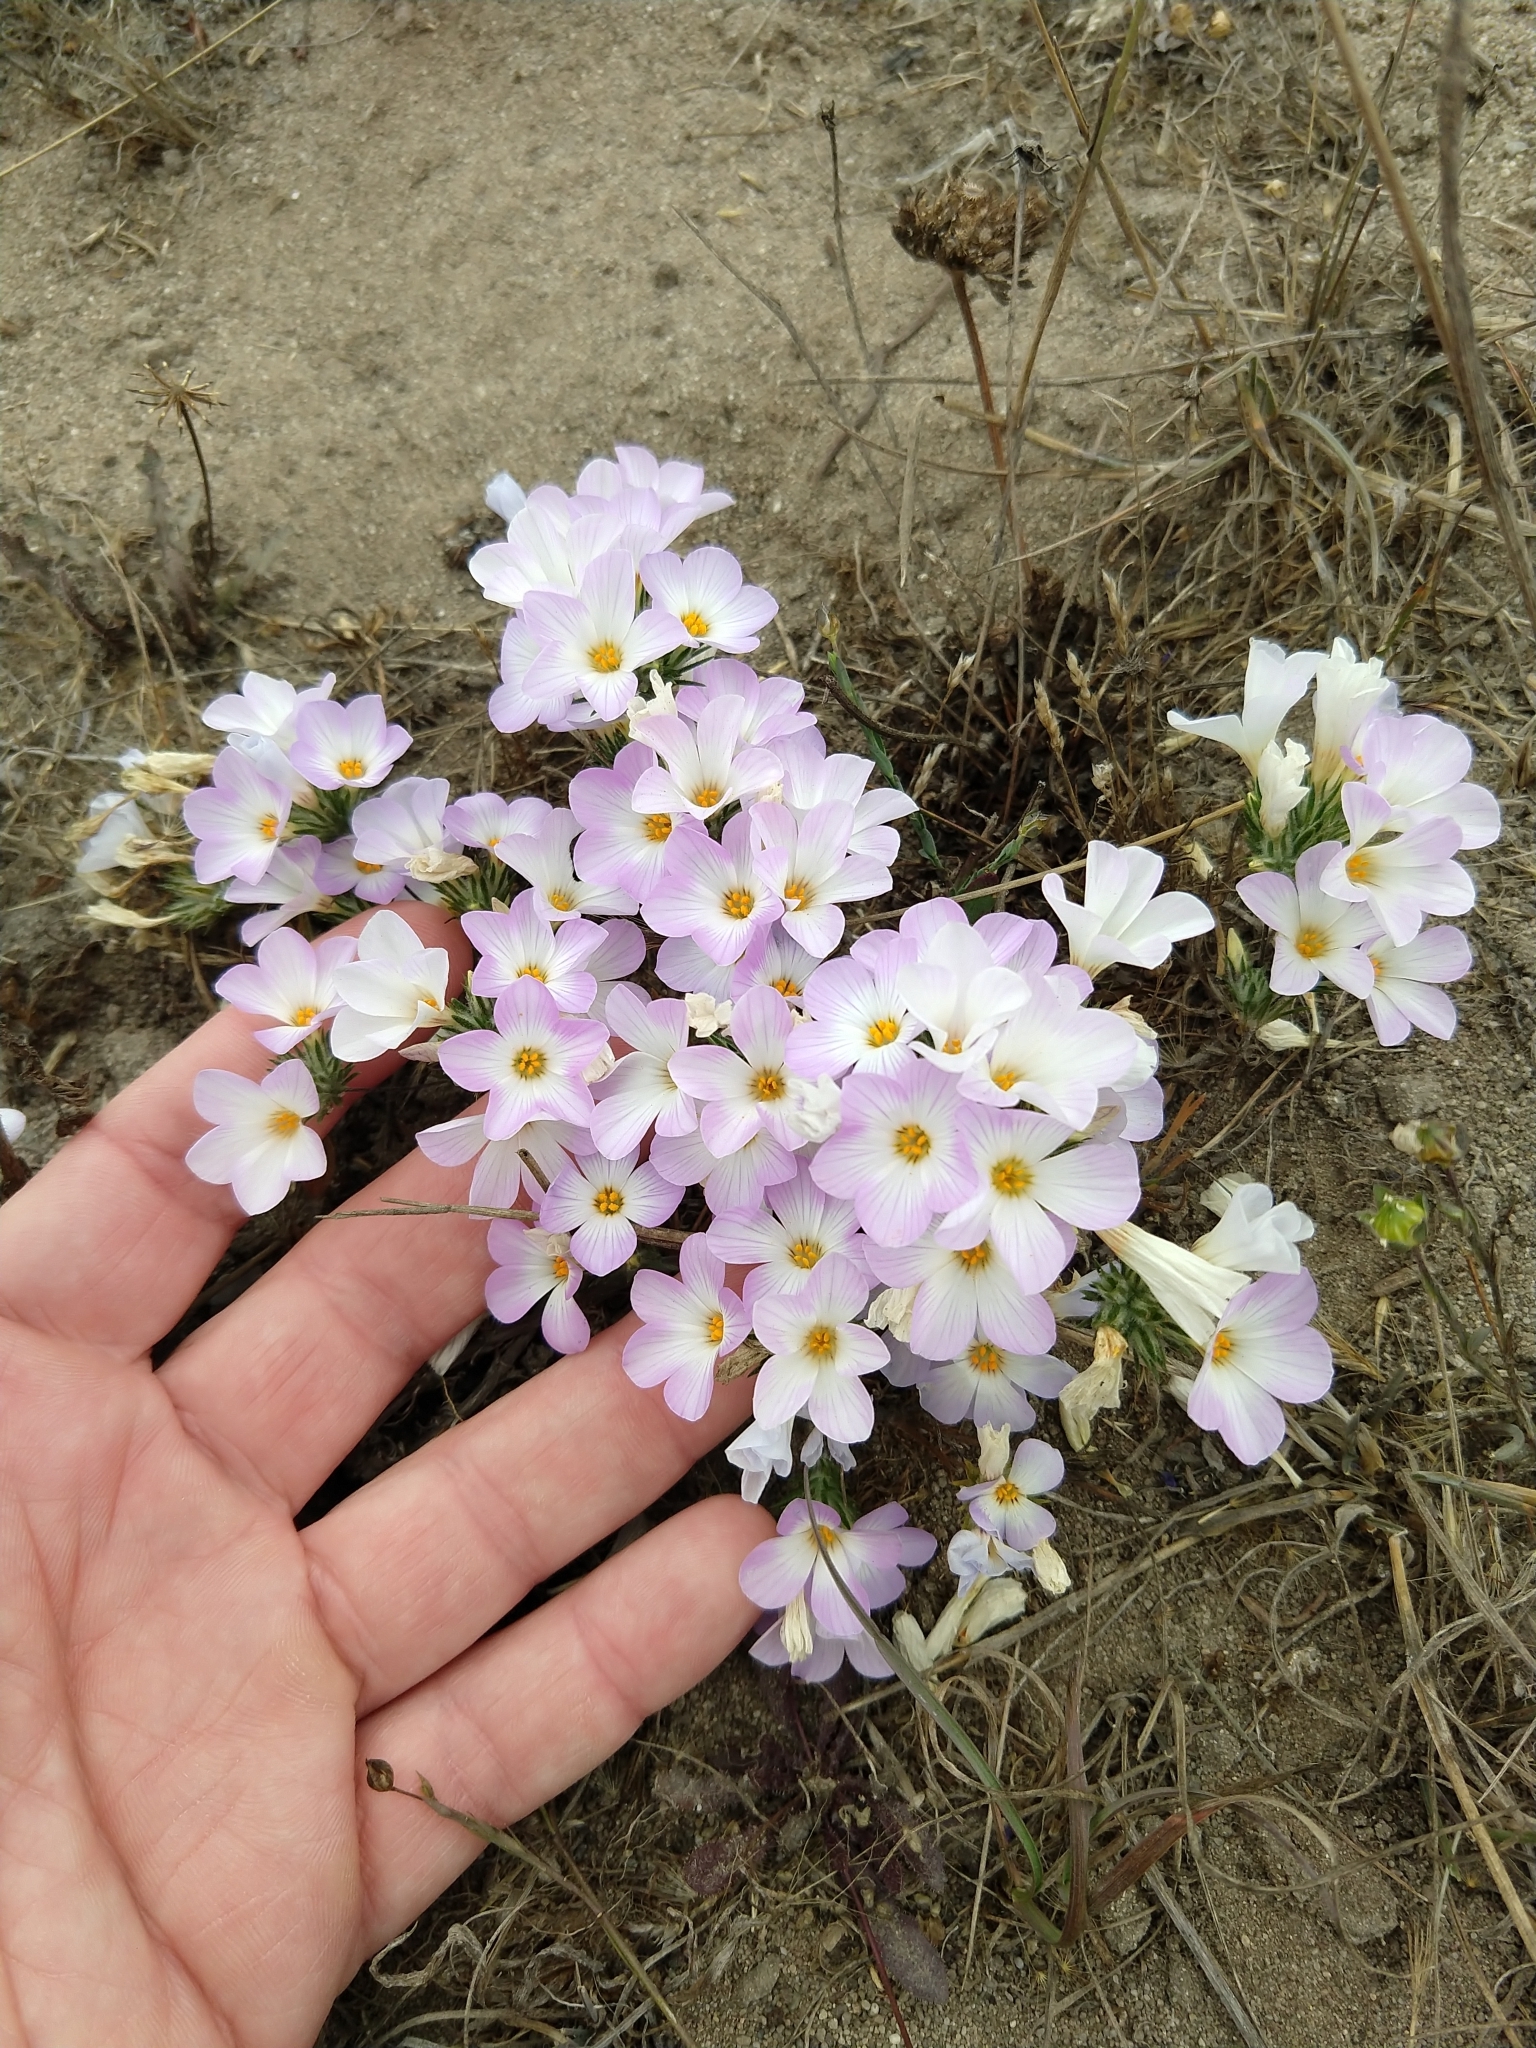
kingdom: Plantae
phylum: Tracheophyta
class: Magnoliopsida
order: Ericales
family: Polemoniaceae
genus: Leptosiphon
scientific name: Leptosiphon grandiflorus
